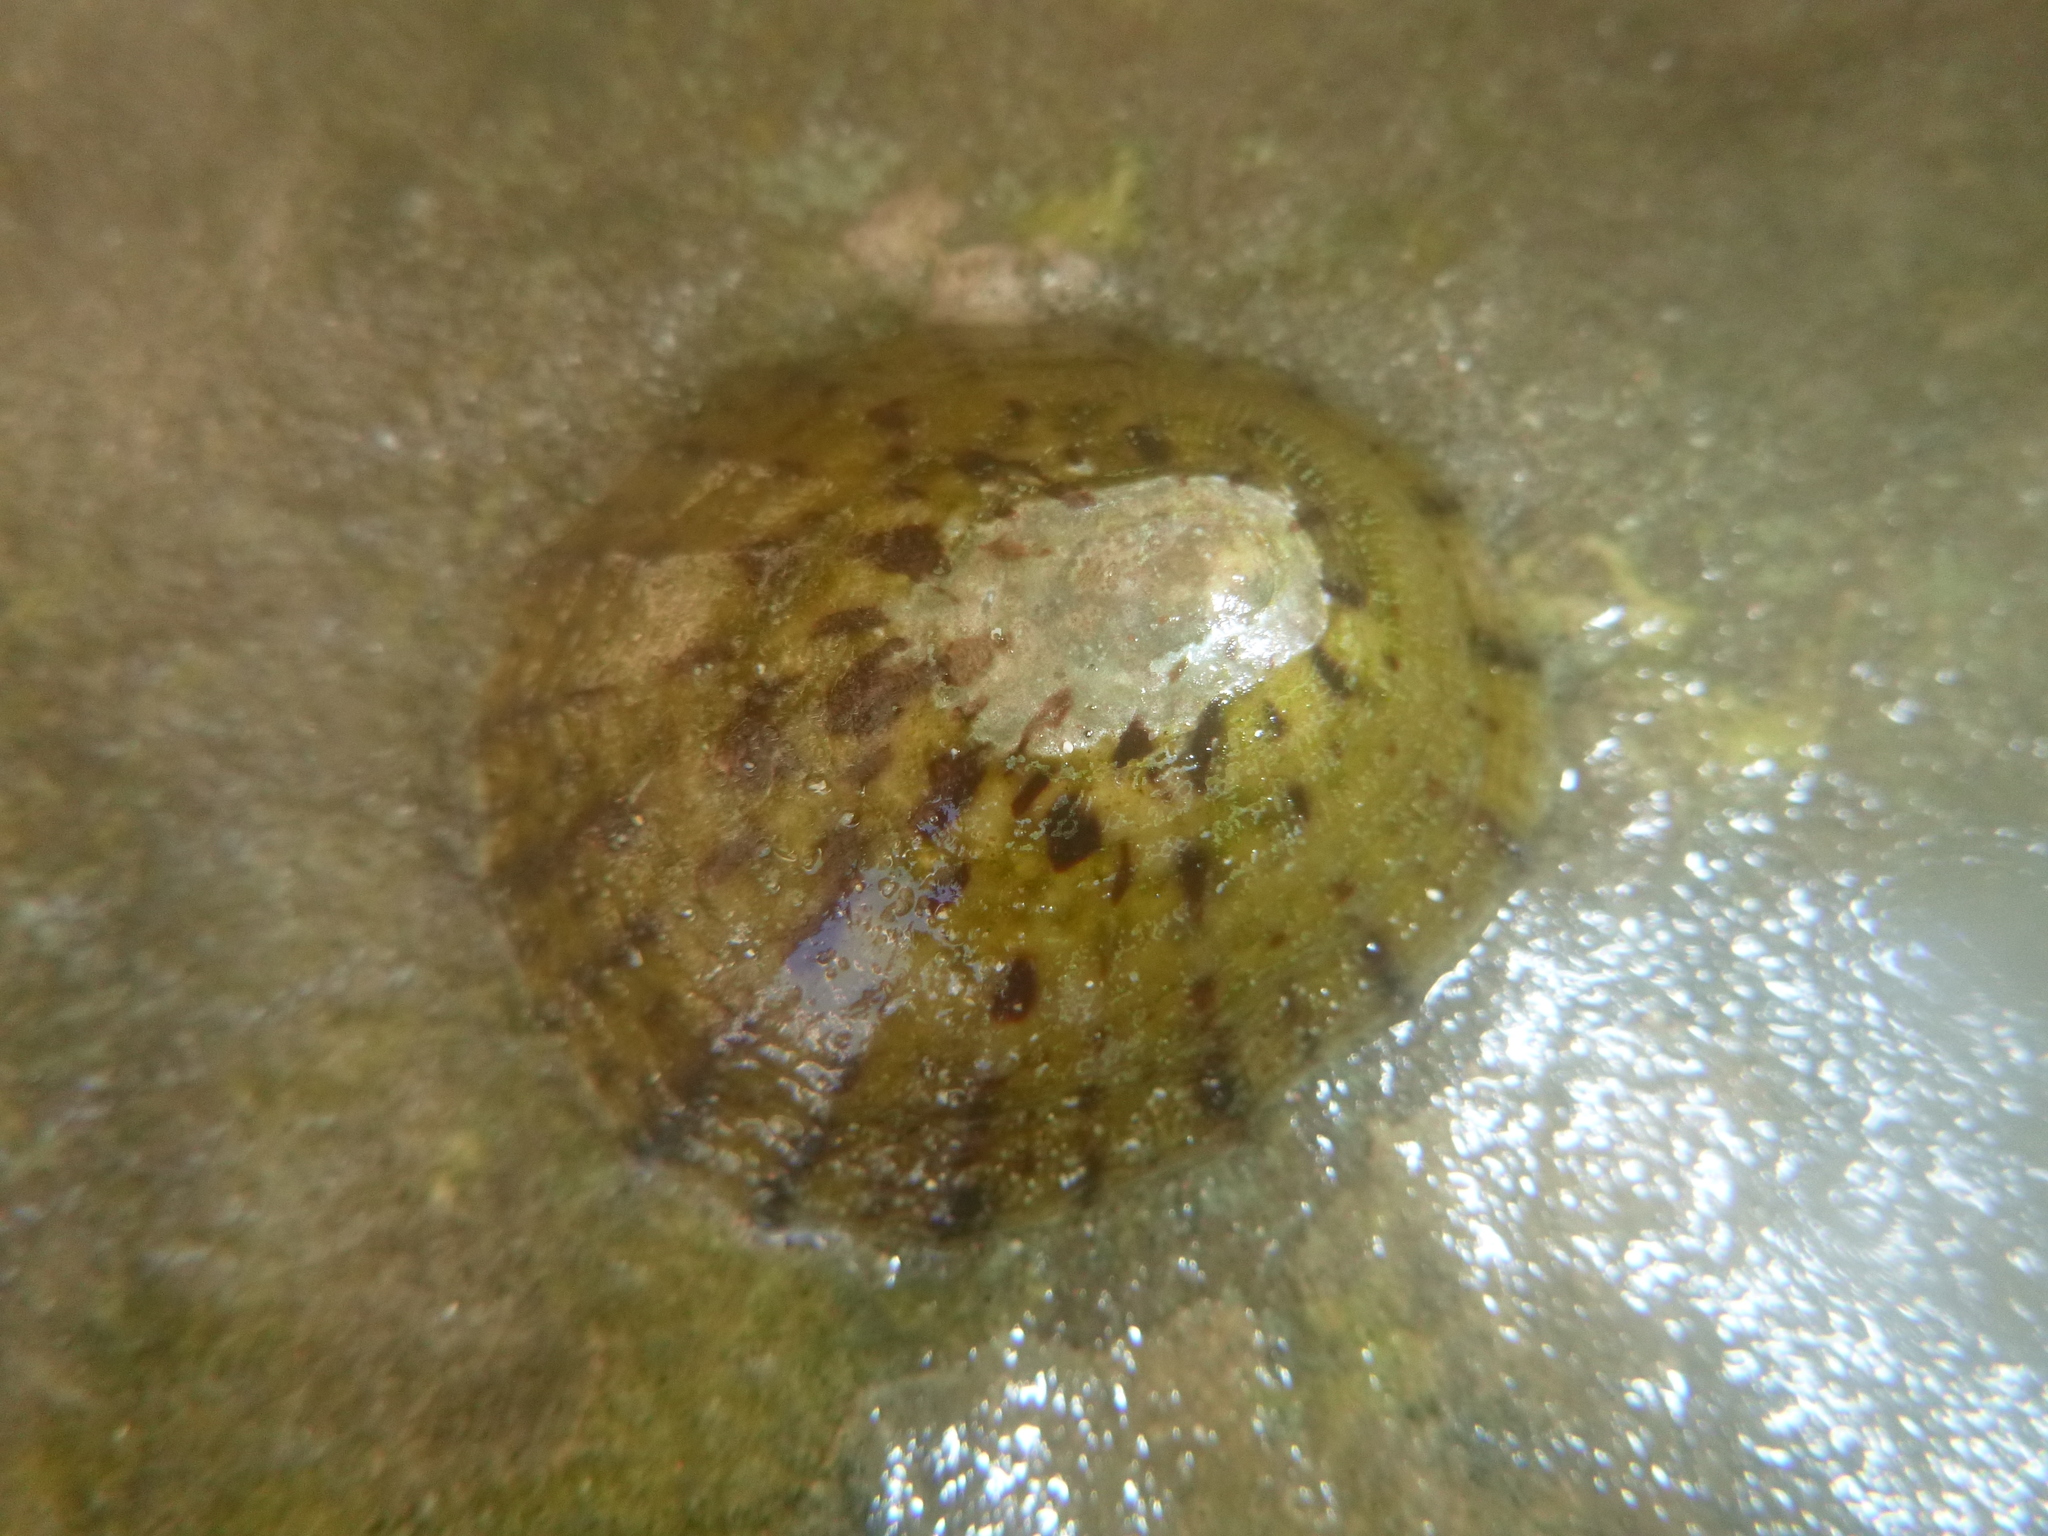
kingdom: Animalia
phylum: Mollusca
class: Gastropoda
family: Nacellidae
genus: Cellana
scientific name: Cellana radians
